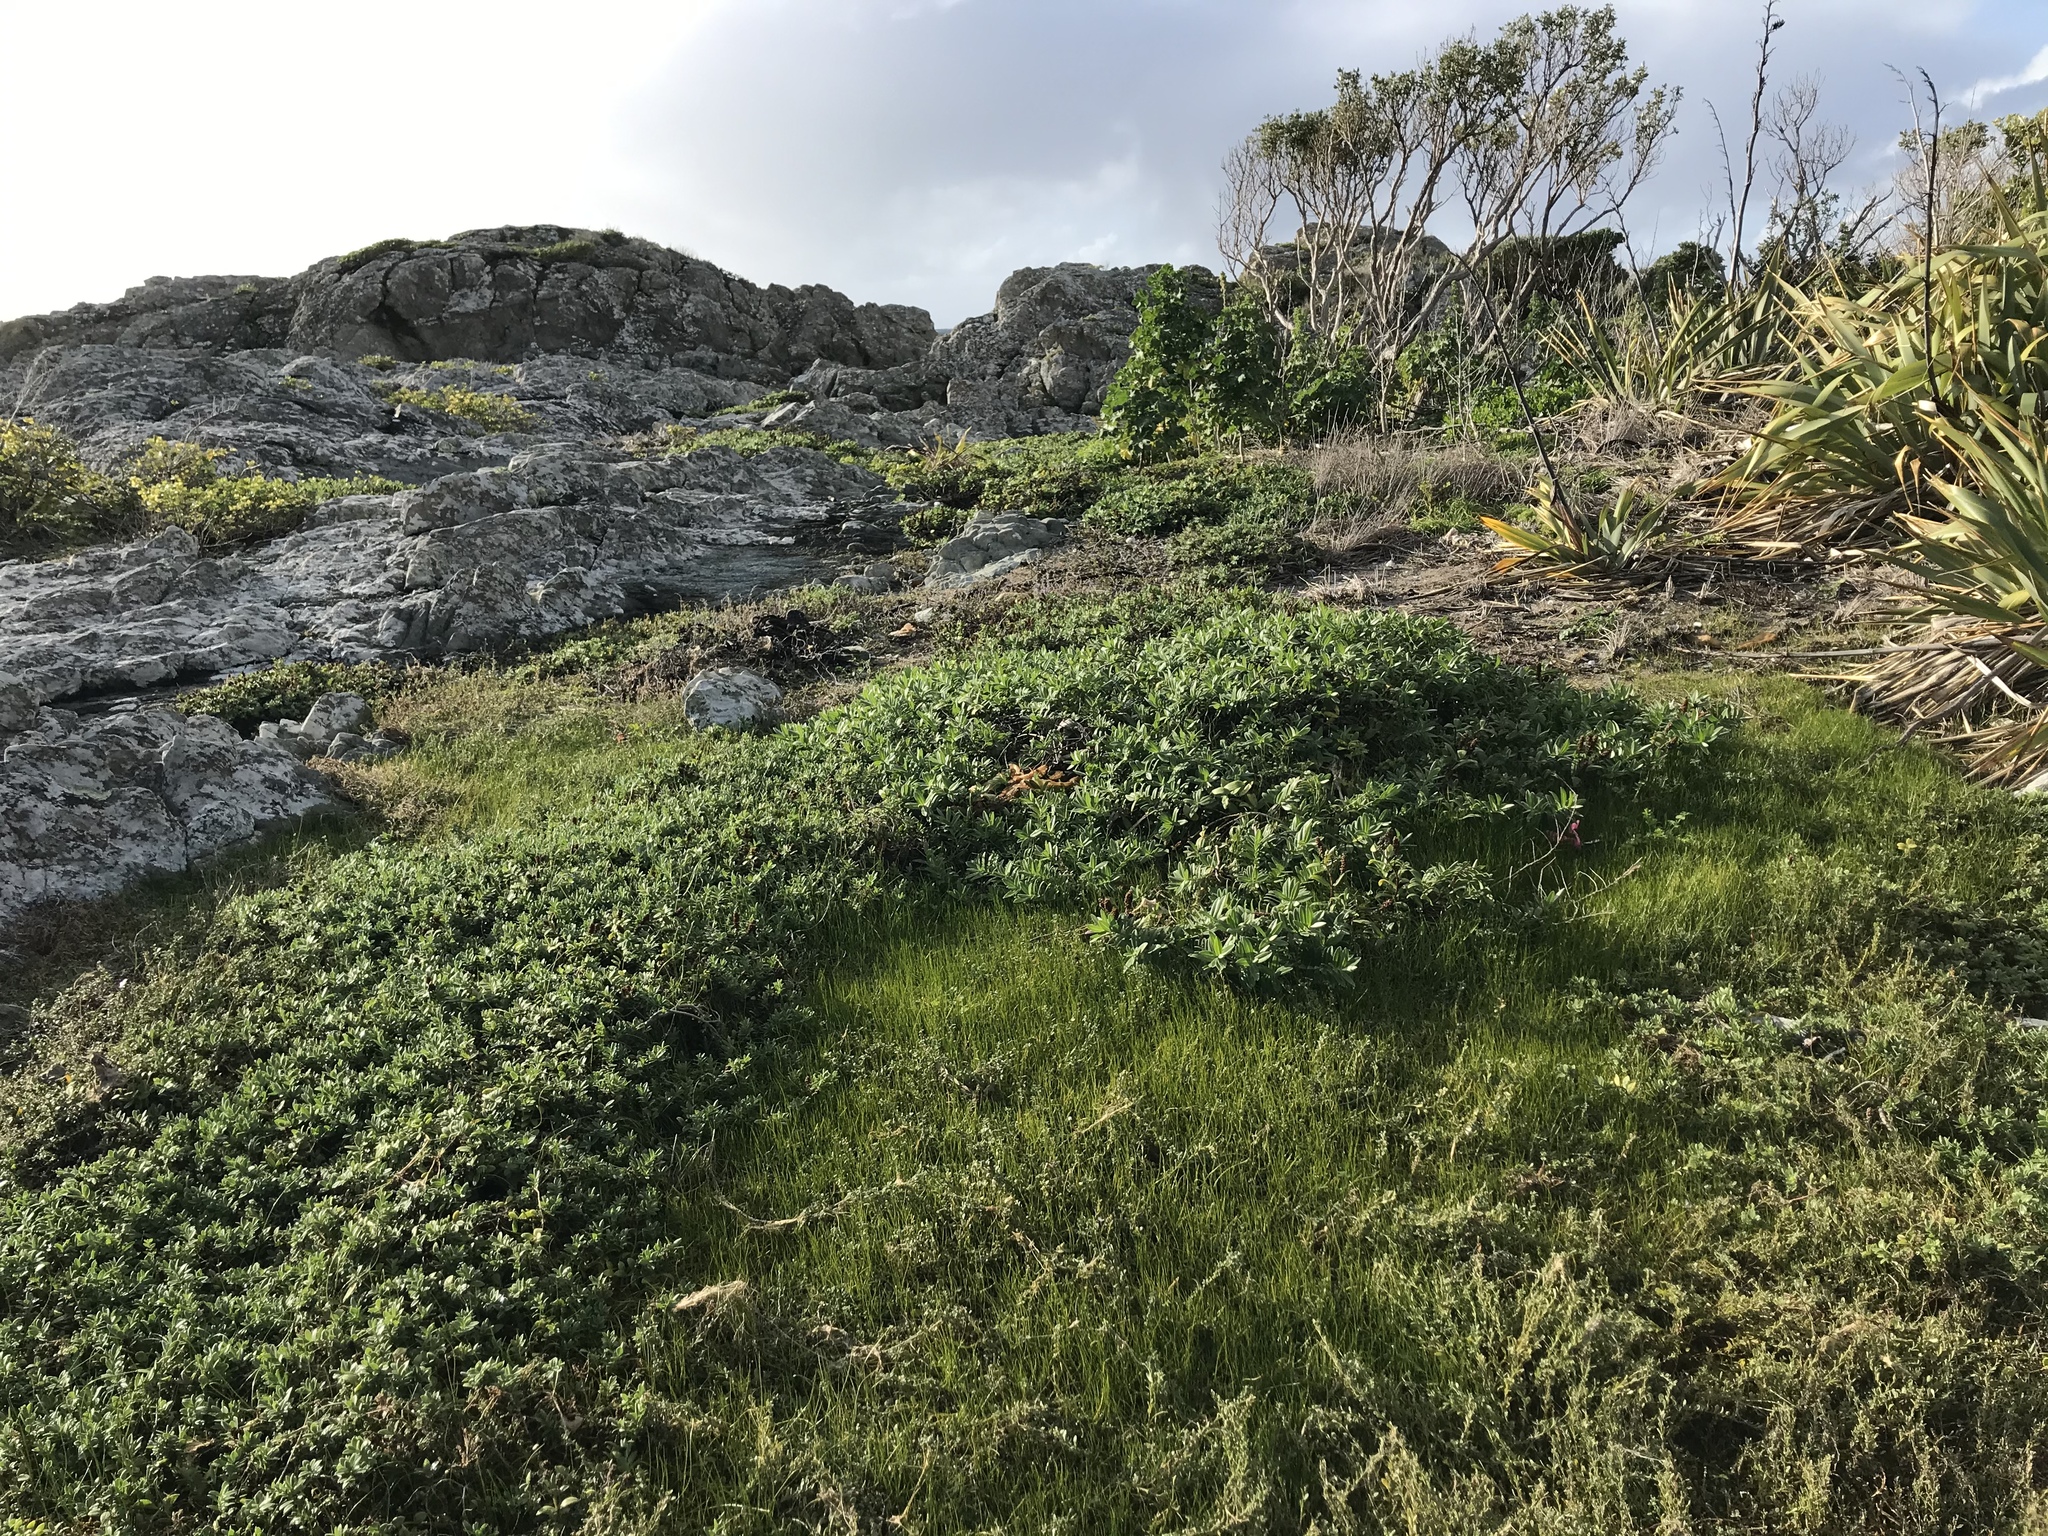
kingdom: Plantae
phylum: Tracheophyta
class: Magnoliopsida
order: Lamiales
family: Plantaginaceae
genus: Veronica
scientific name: Veronica chathamica
